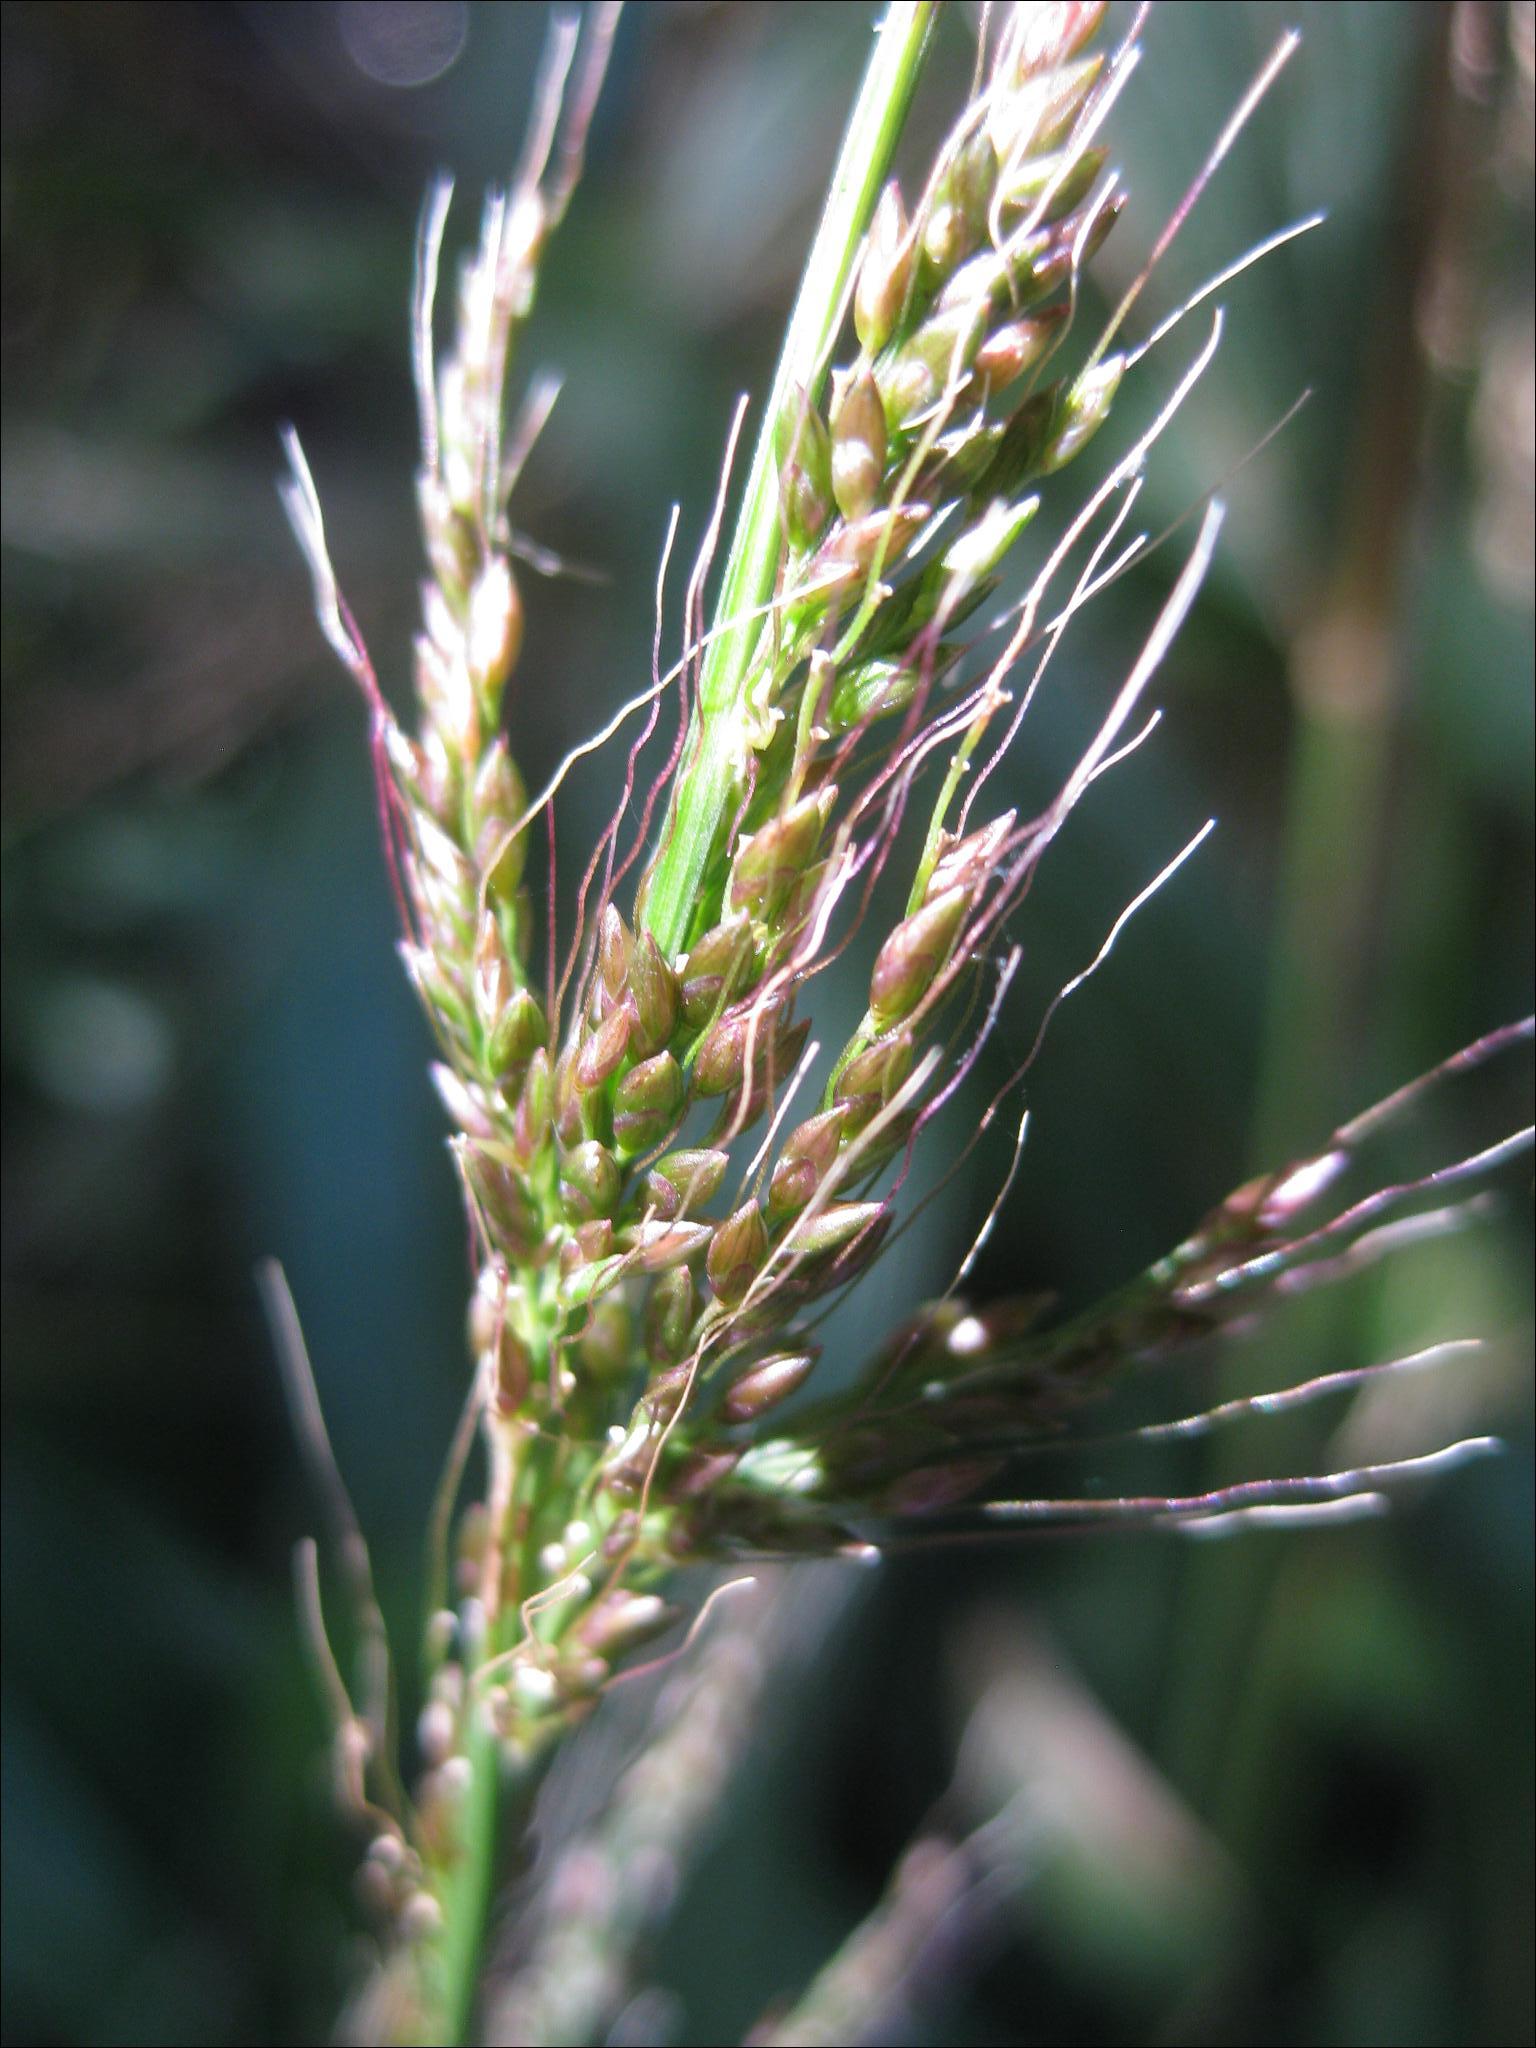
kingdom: Plantae
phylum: Tracheophyta
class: Liliopsida
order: Poales
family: Poaceae
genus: Setaria
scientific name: Setaria palmifolia
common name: Broadleaved bristlegrass
